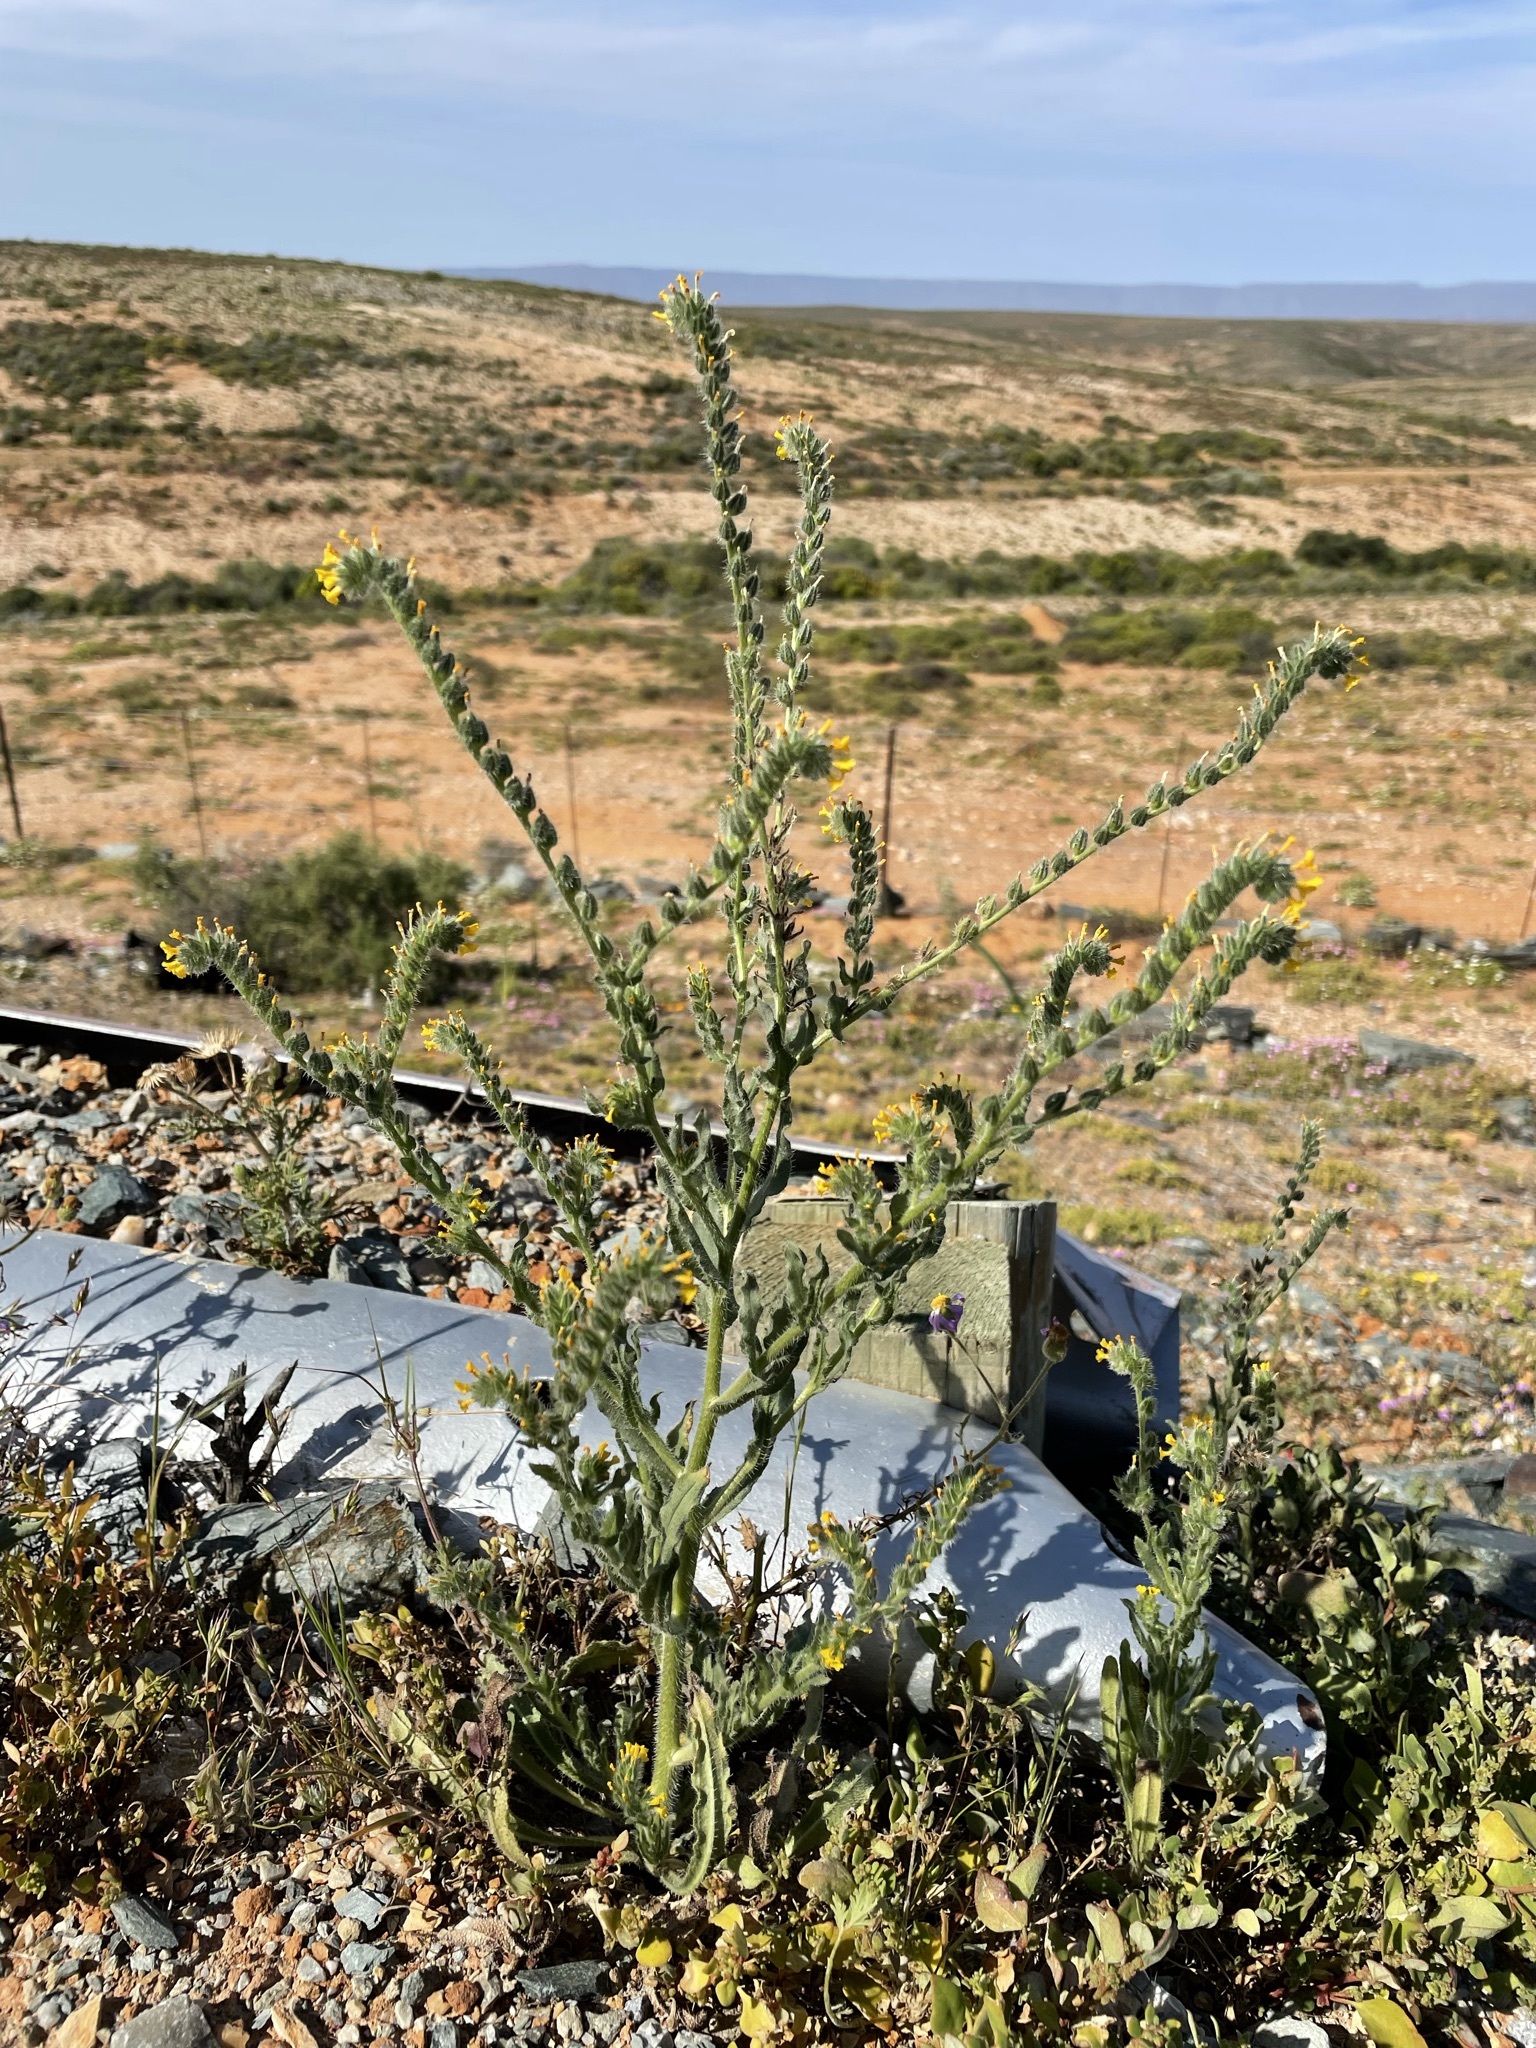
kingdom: Plantae
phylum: Tracheophyta
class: Magnoliopsida
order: Boraginales
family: Boraginaceae
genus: Amsinckia
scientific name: Amsinckia menziesii
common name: Menzies' fiddleneck
